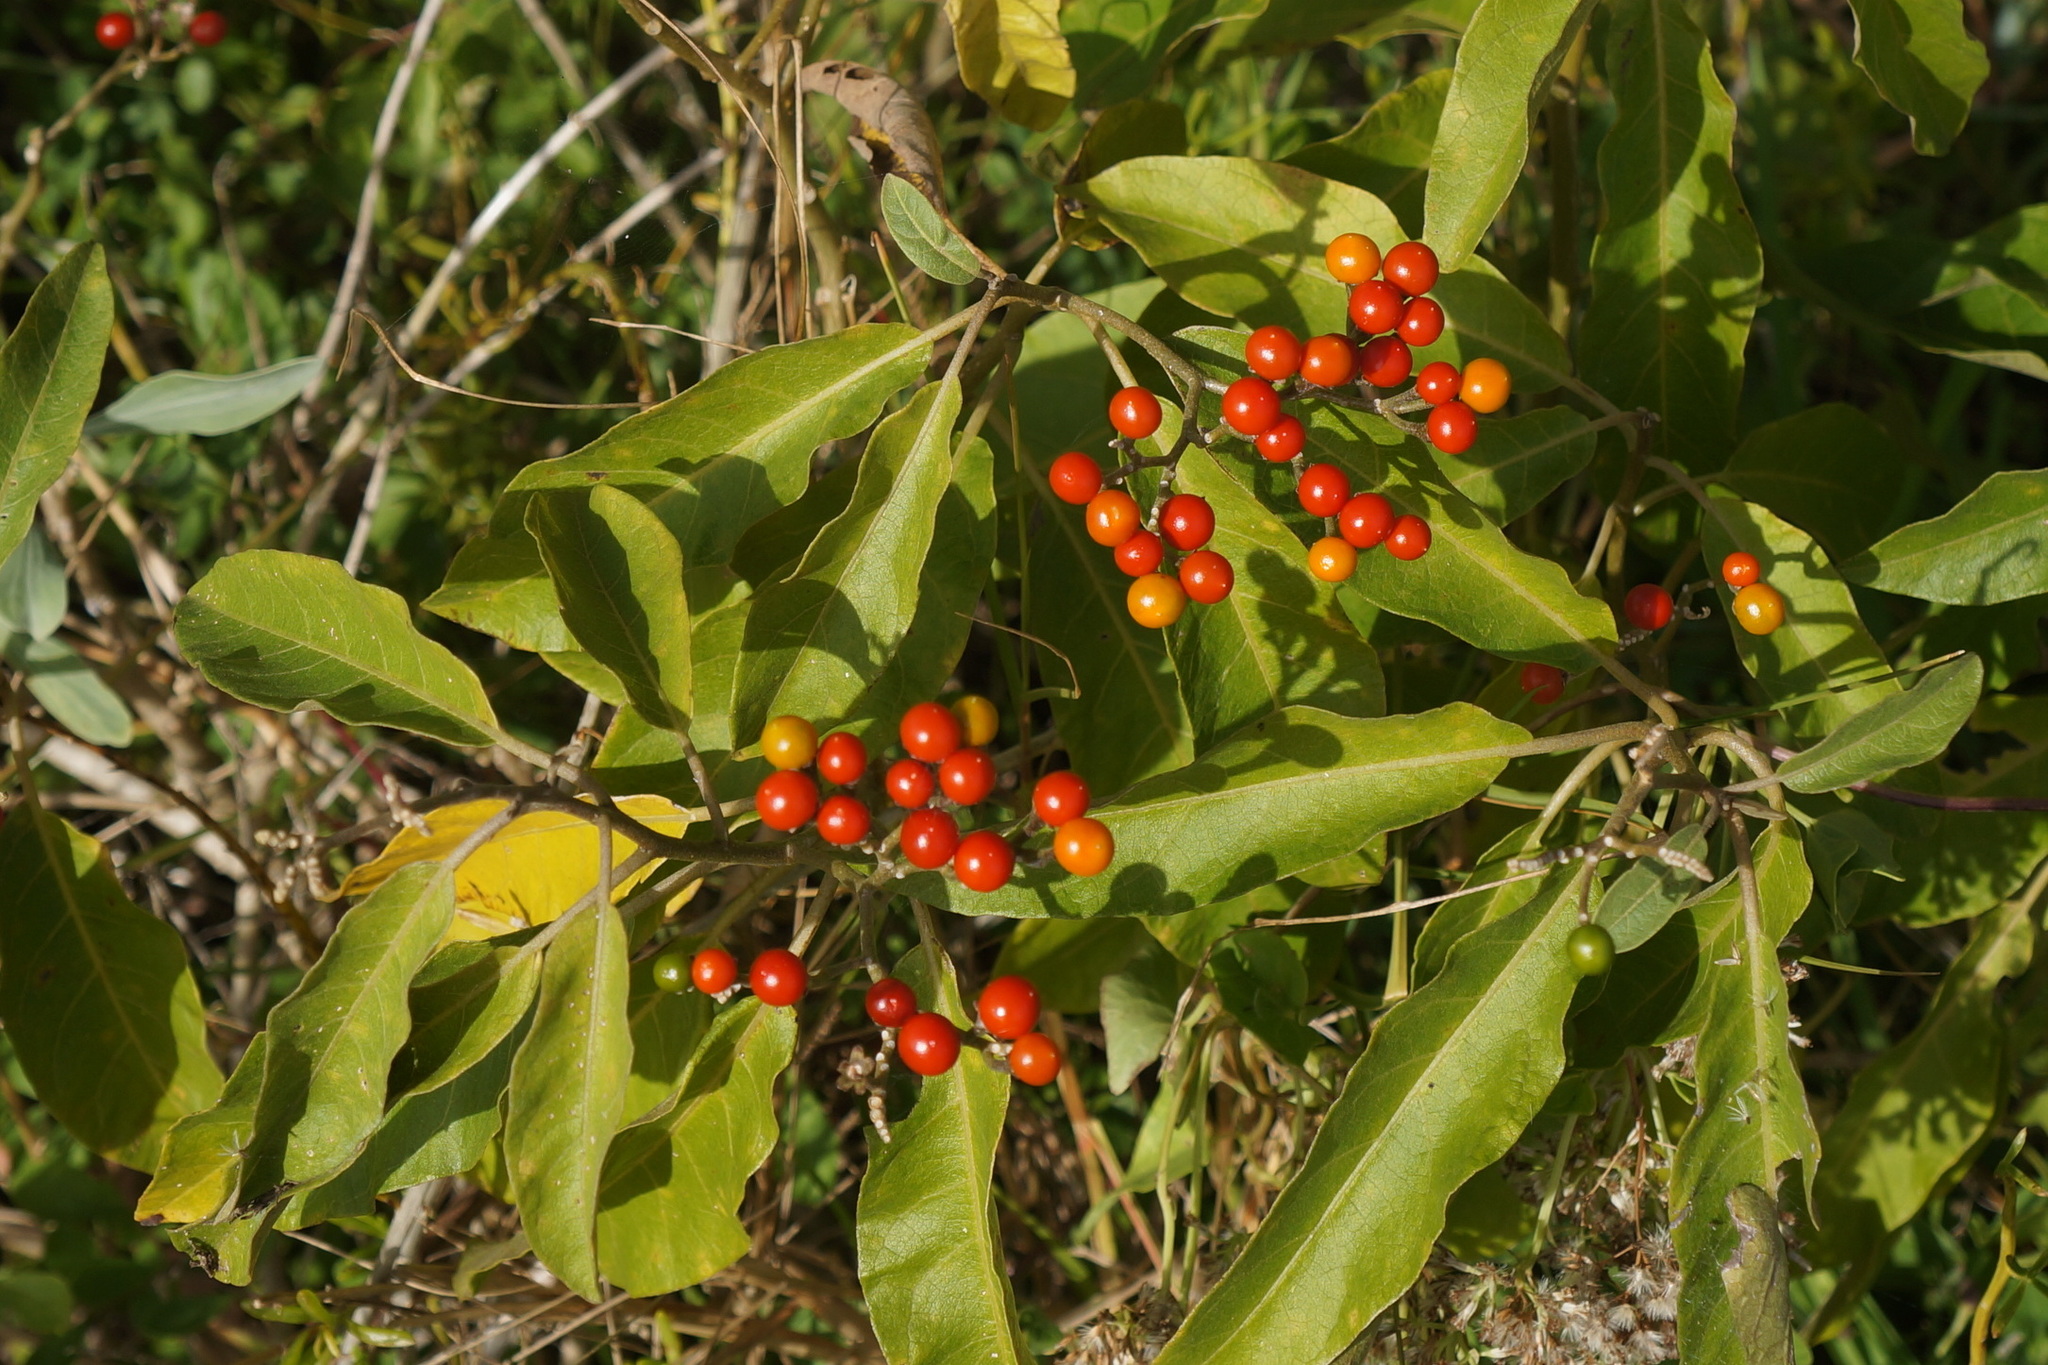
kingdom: Plantae
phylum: Tracheophyta
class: Magnoliopsida
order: Solanales
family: Solanaceae
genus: Solanum
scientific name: Solanum donianum
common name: Mullein nightshade
